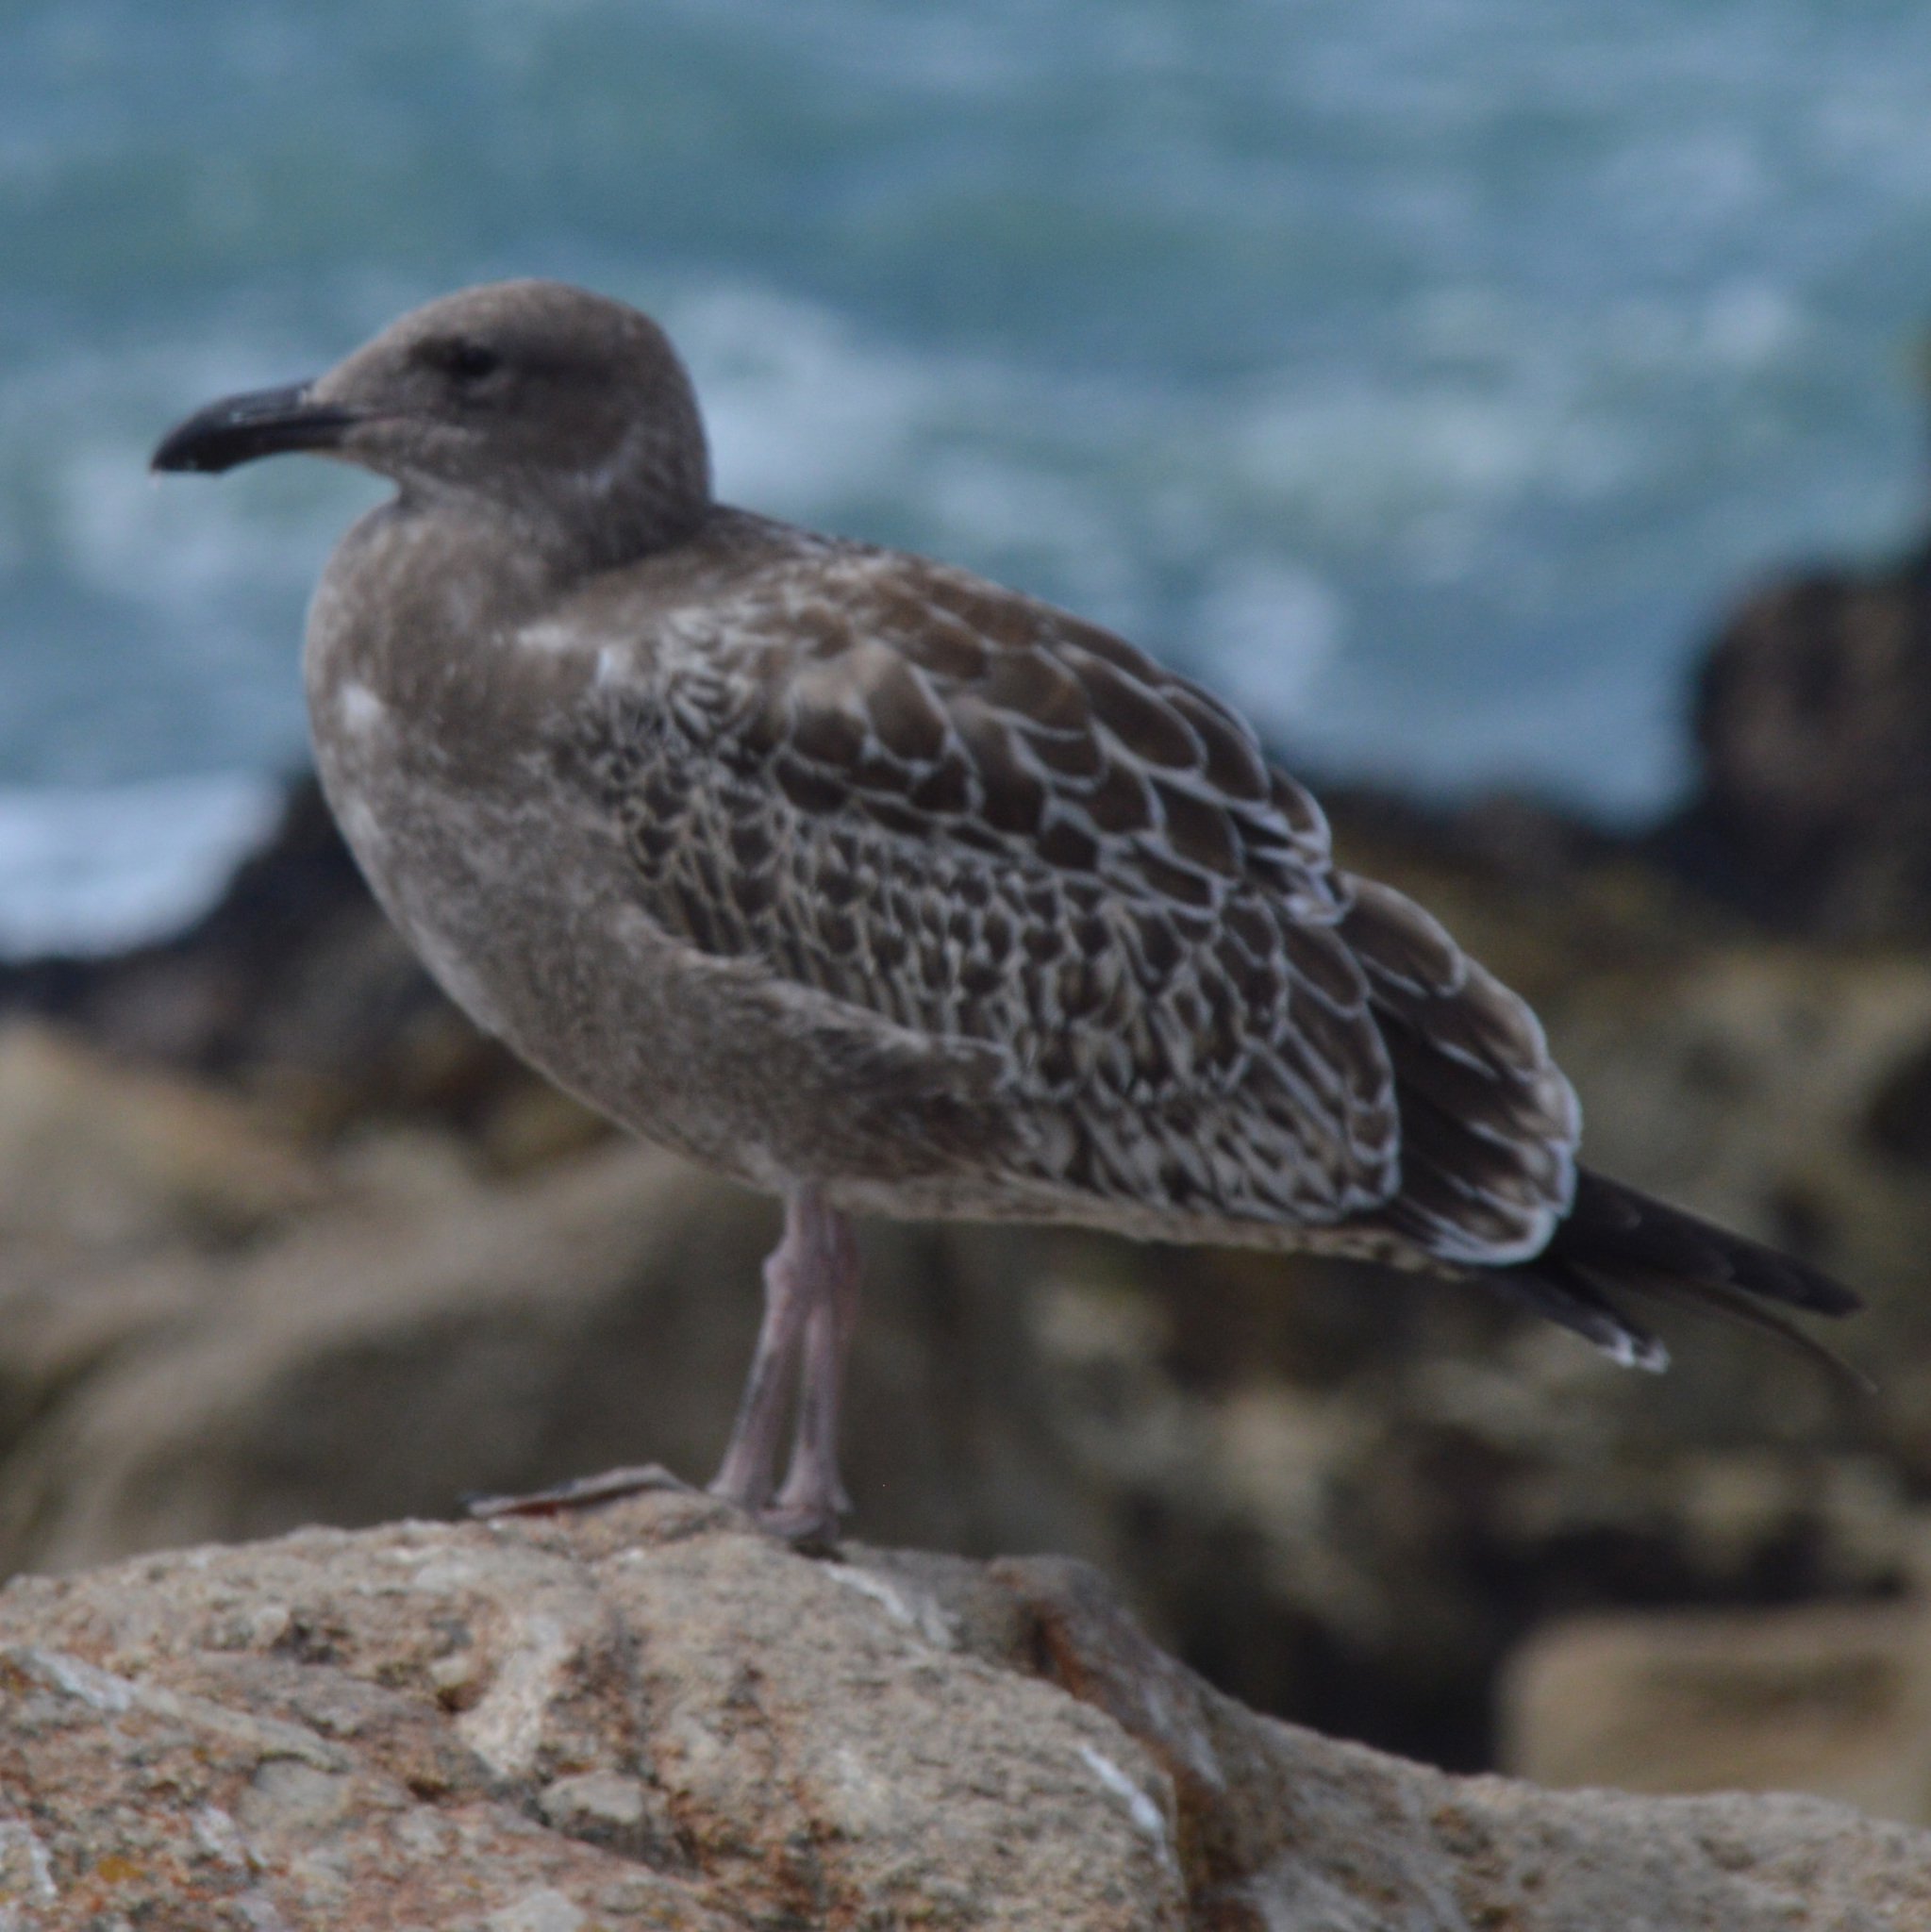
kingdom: Animalia
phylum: Chordata
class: Aves
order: Charadriiformes
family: Laridae
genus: Larus
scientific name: Larus occidentalis
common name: Western gull
